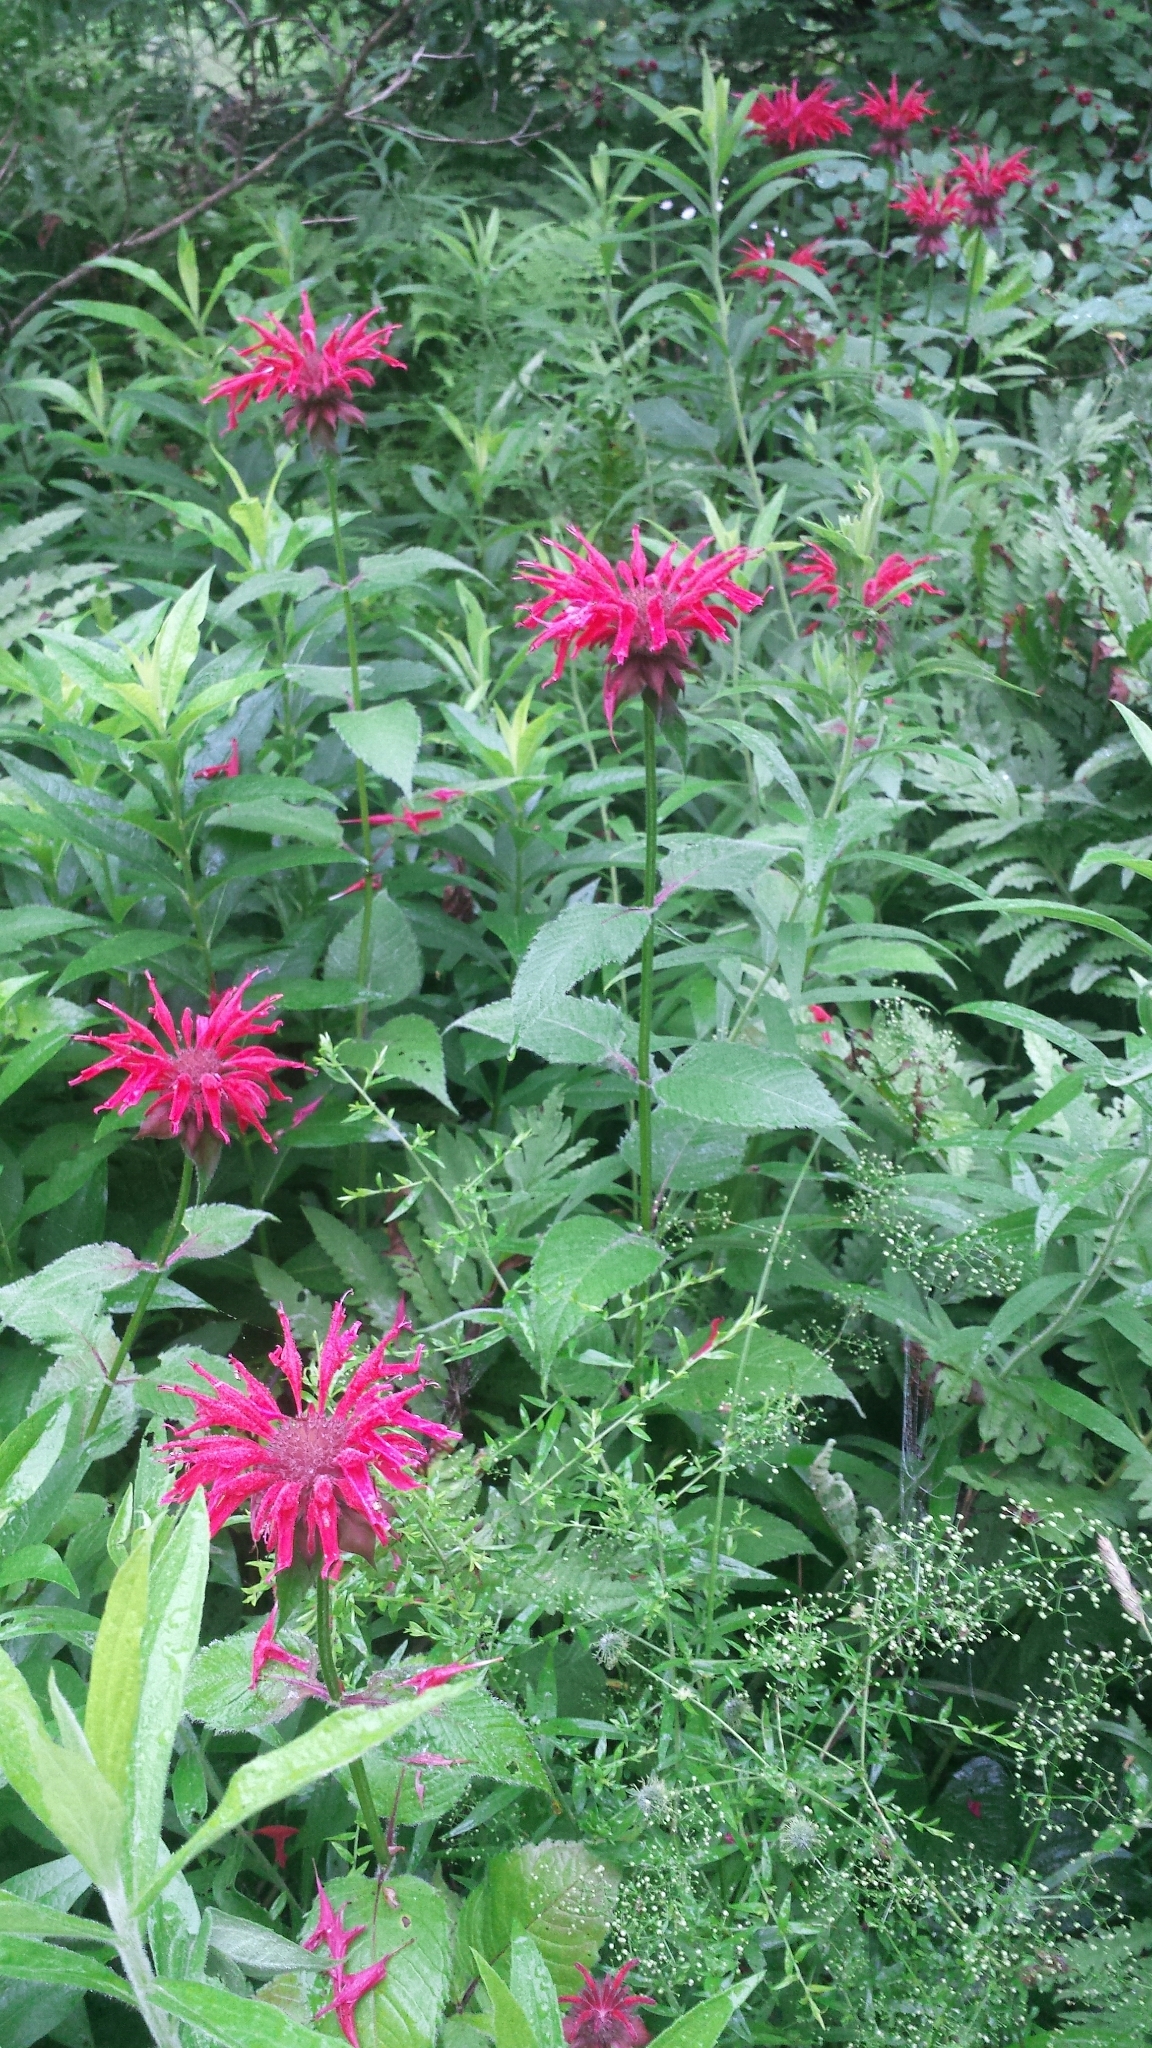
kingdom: Plantae
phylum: Tracheophyta
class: Magnoliopsida
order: Lamiales
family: Lamiaceae
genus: Monarda
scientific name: Monarda didyma
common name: Beebalm
